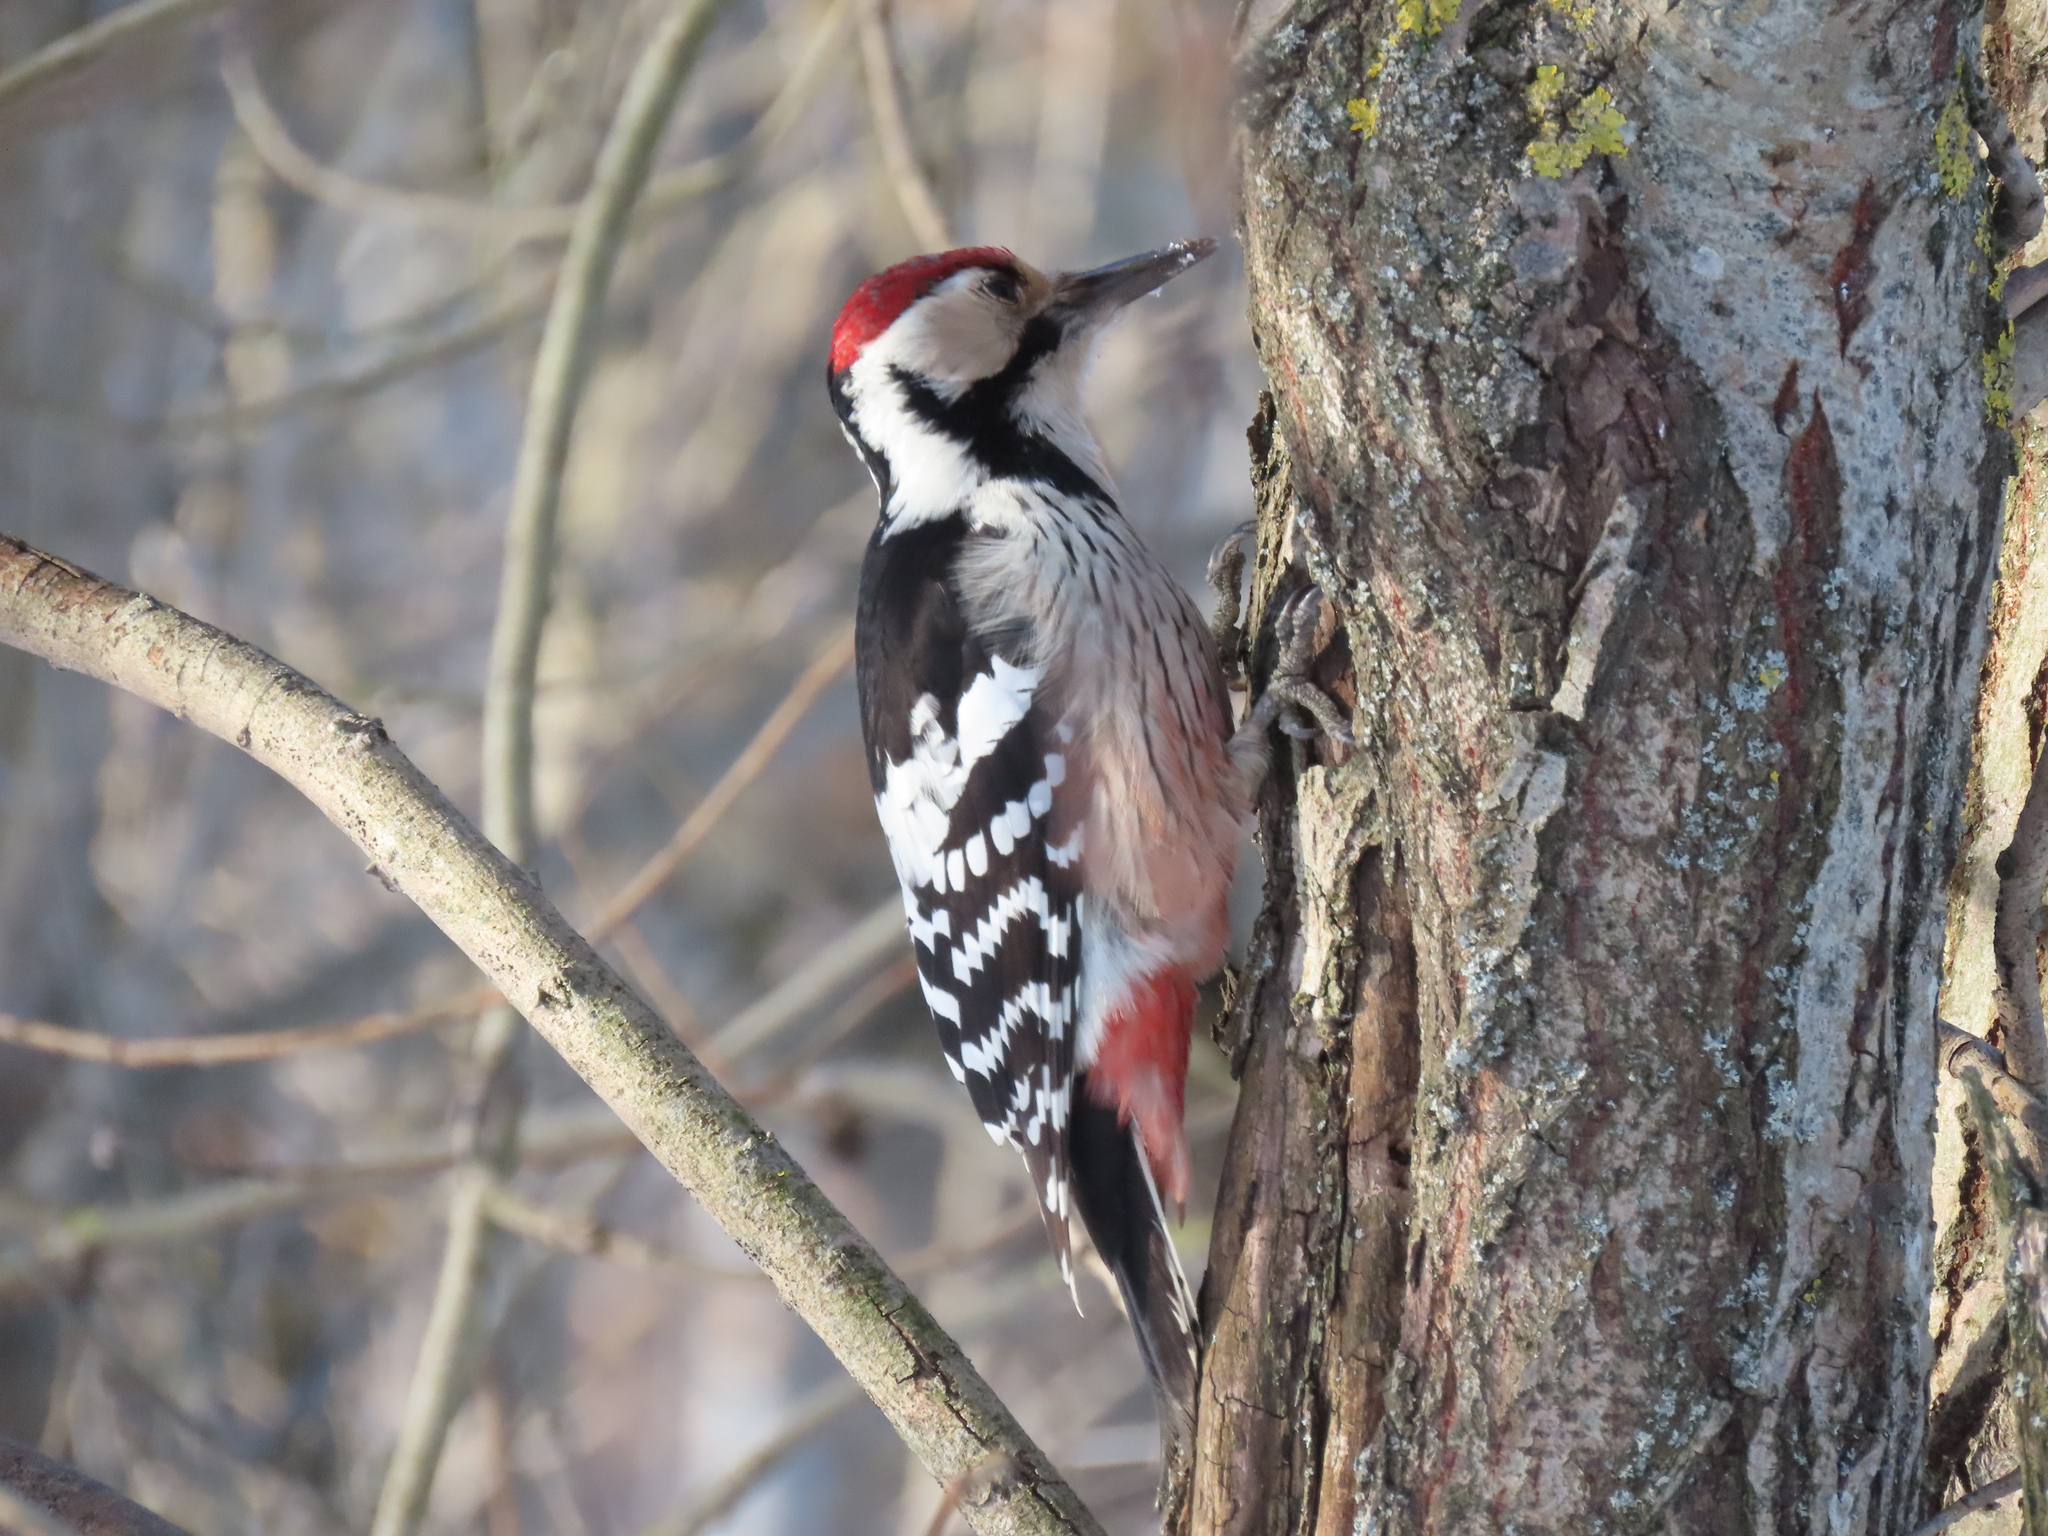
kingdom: Animalia
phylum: Chordata
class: Aves
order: Piciformes
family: Picidae
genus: Dendrocopos
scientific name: Dendrocopos leucotos
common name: White-backed woodpecker
